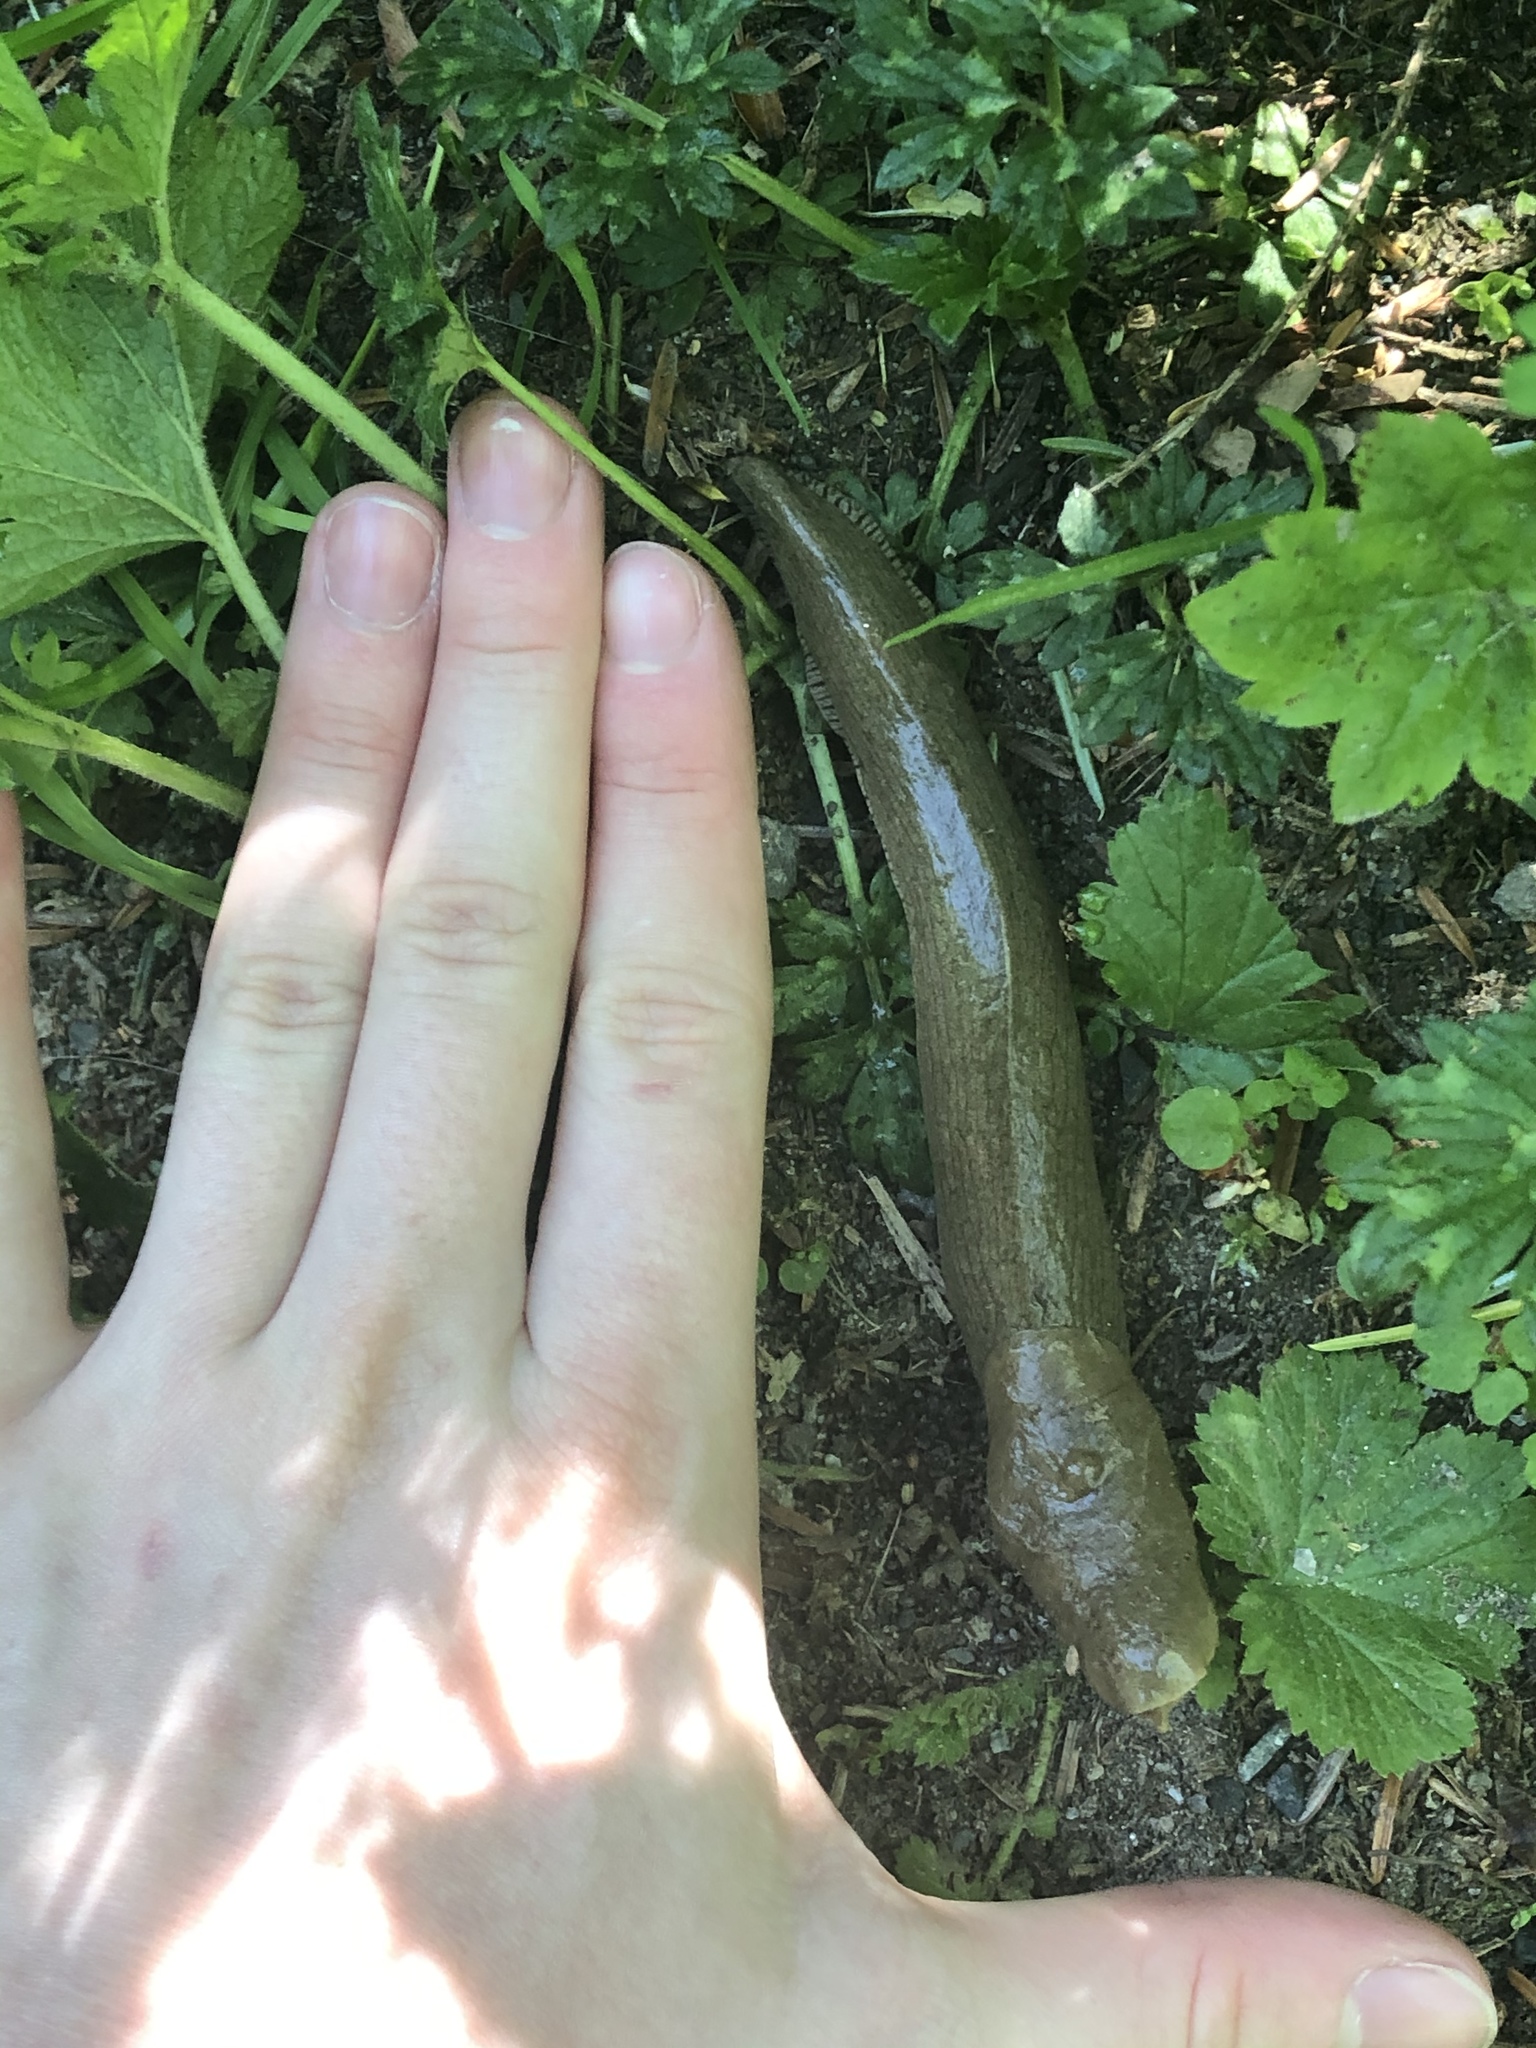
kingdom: Animalia
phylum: Mollusca
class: Gastropoda
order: Stylommatophora
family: Ariolimacidae
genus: Ariolimax
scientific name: Ariolimax columbianus
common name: Pacific banana slug
